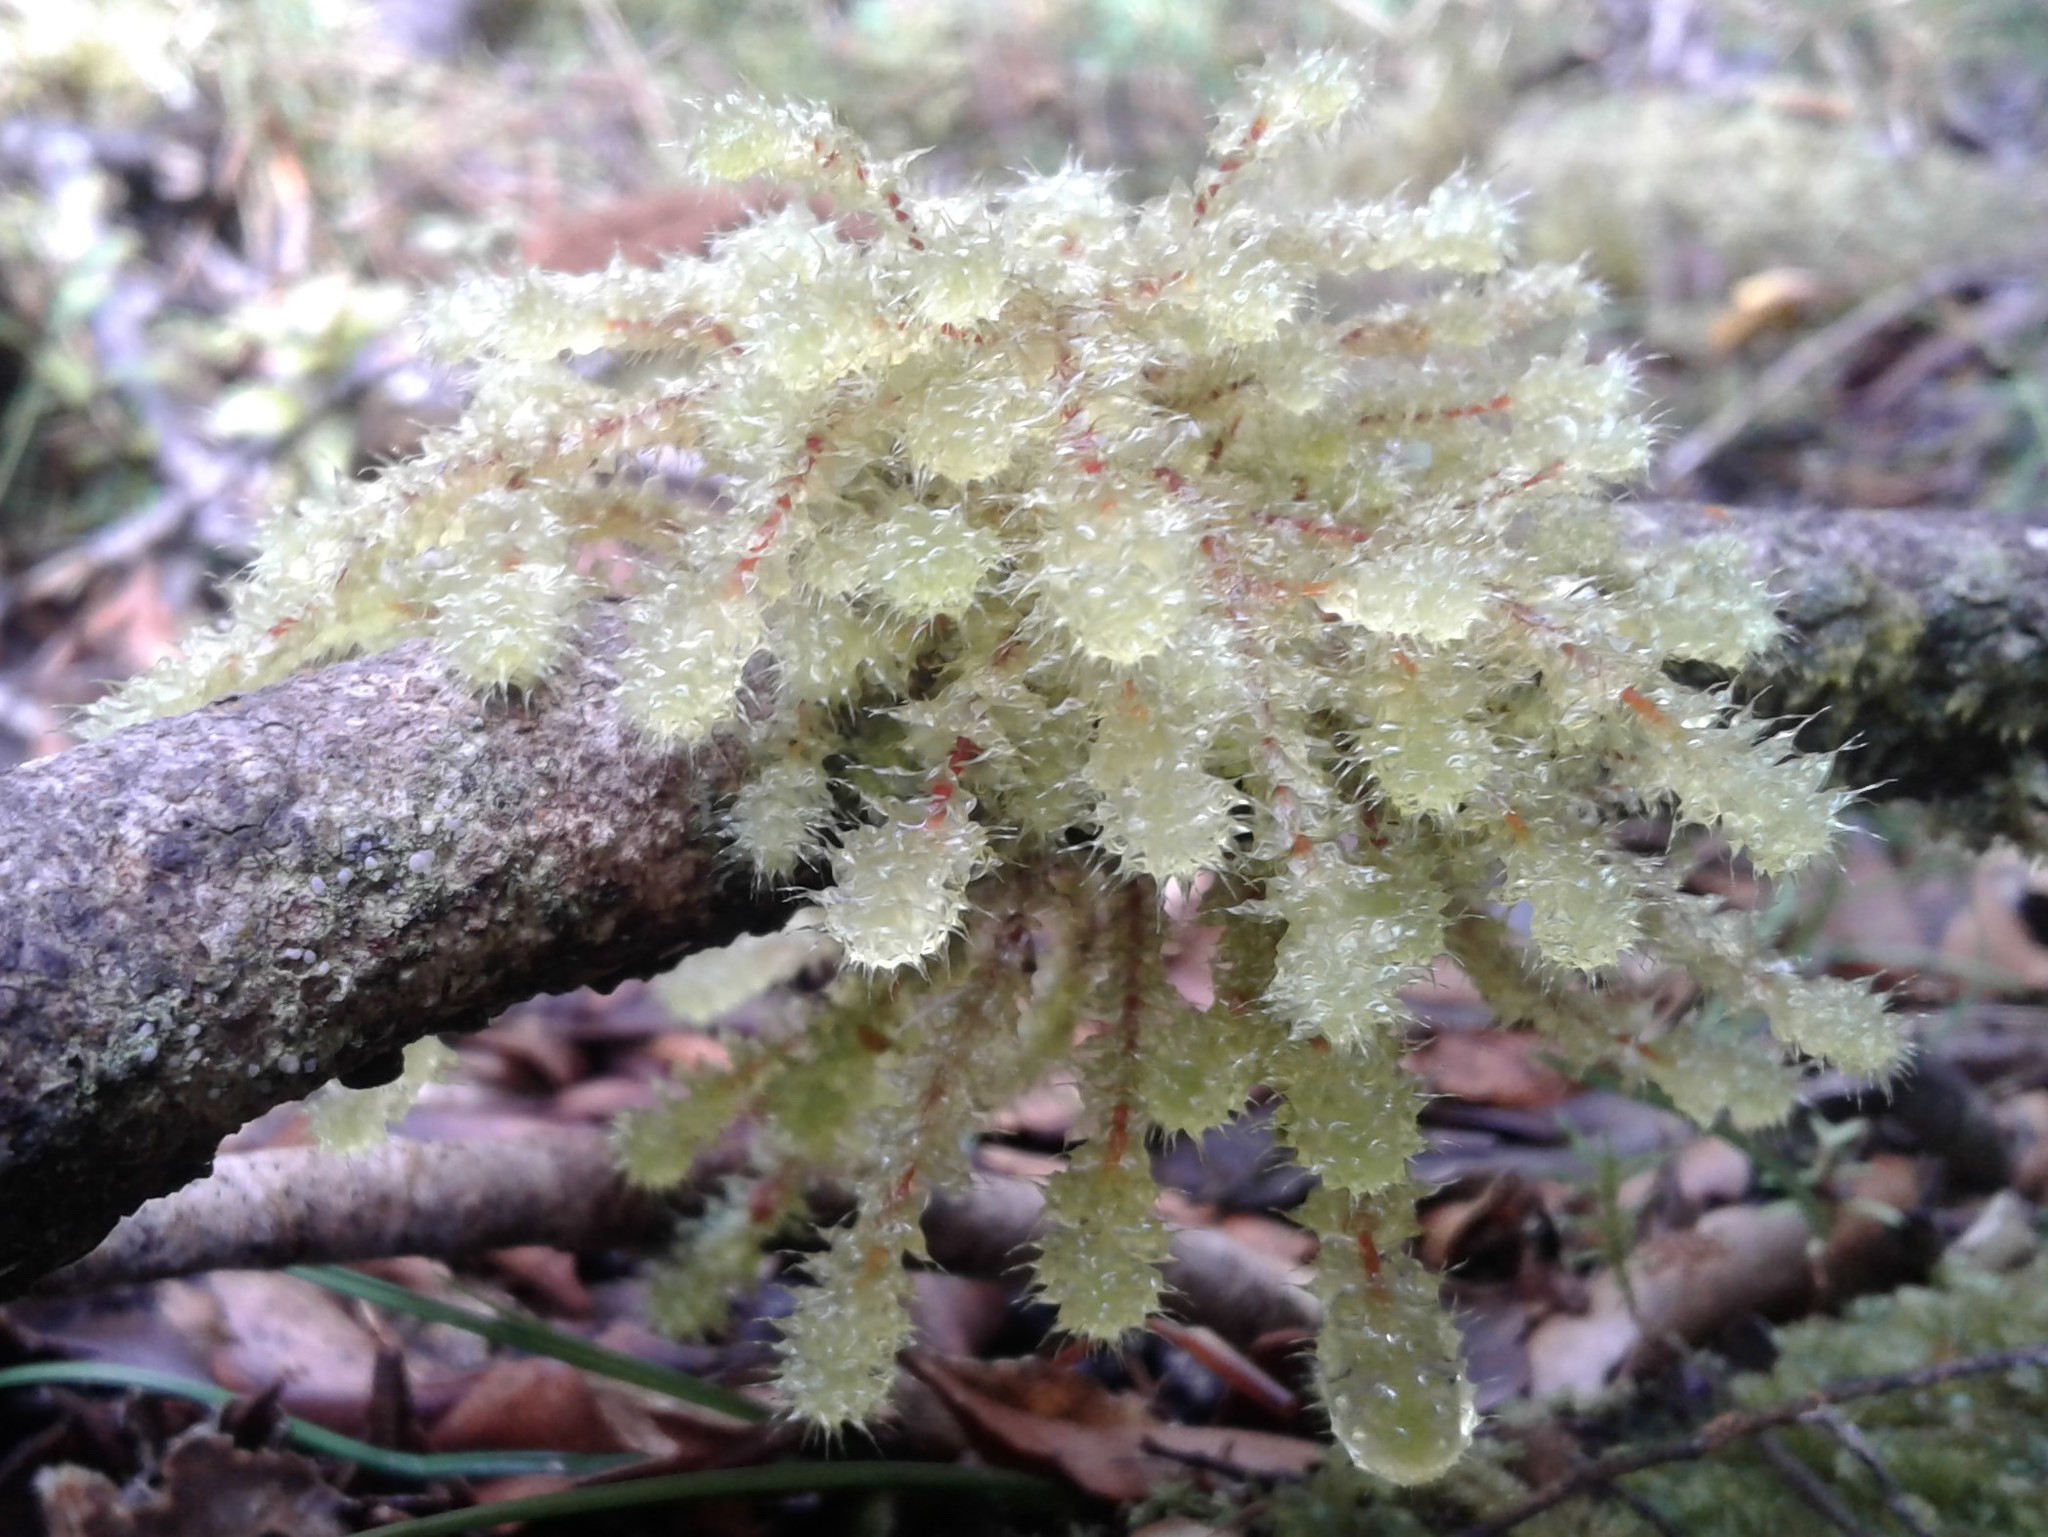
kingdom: Plantae
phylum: Bryophyta
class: Bryopsida
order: Ptychomniales
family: Ptychomniaceae
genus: Ptychomnion
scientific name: Ptychomnion aciculare
